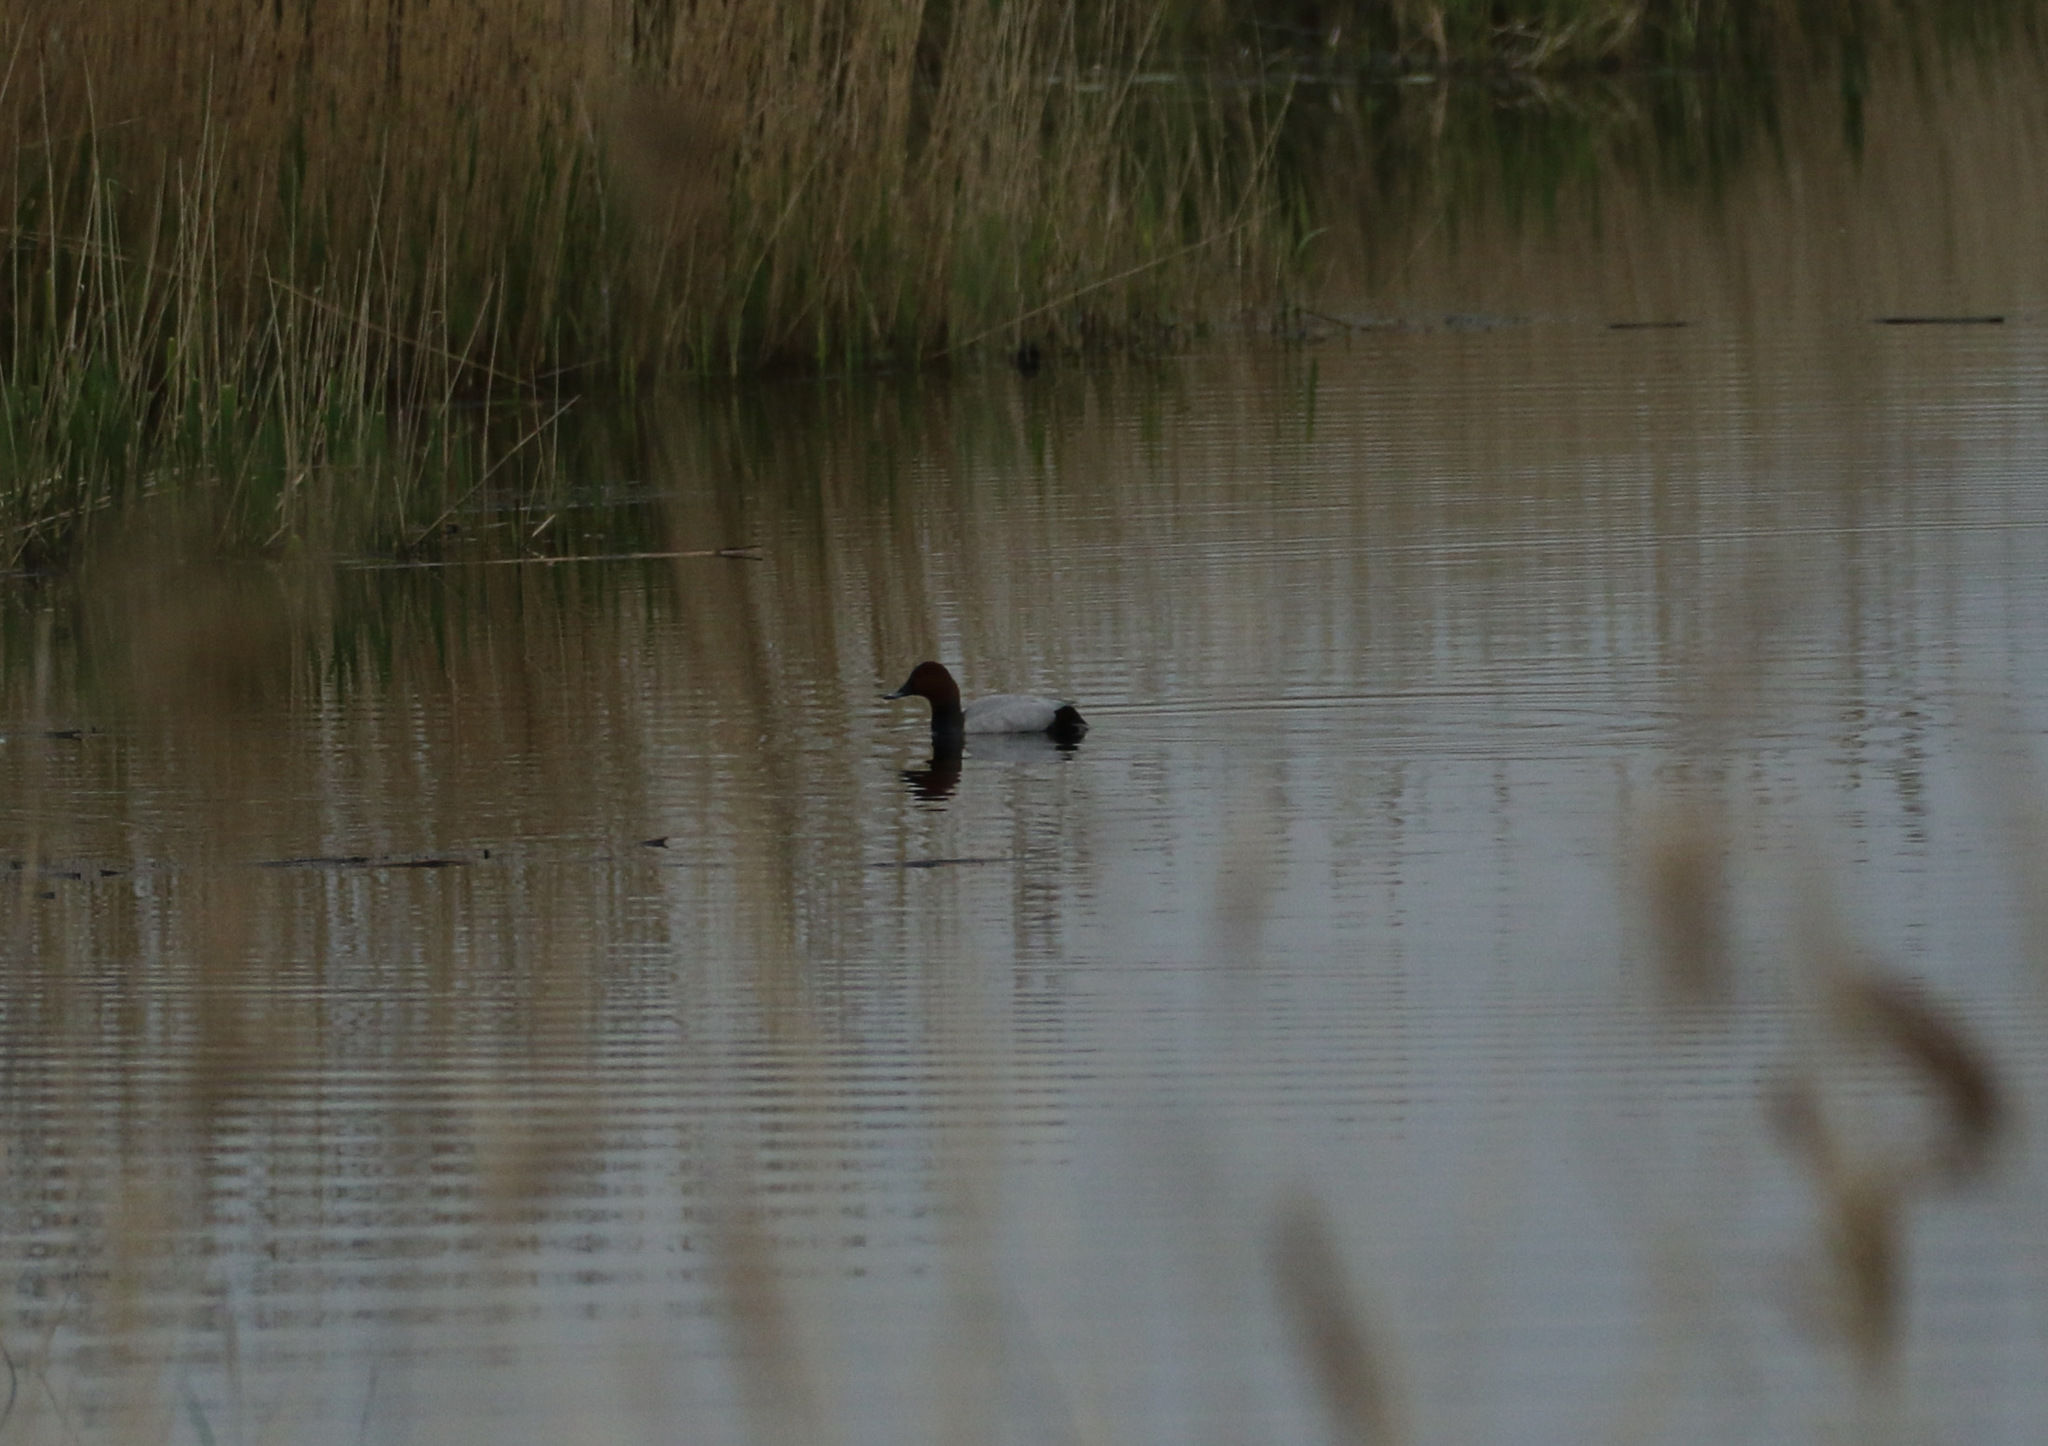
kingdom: Animalia
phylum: Chordata
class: Aves
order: Anseriformes
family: Anatidae
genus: Aythya
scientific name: Aythya ferina
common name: Common pochard
